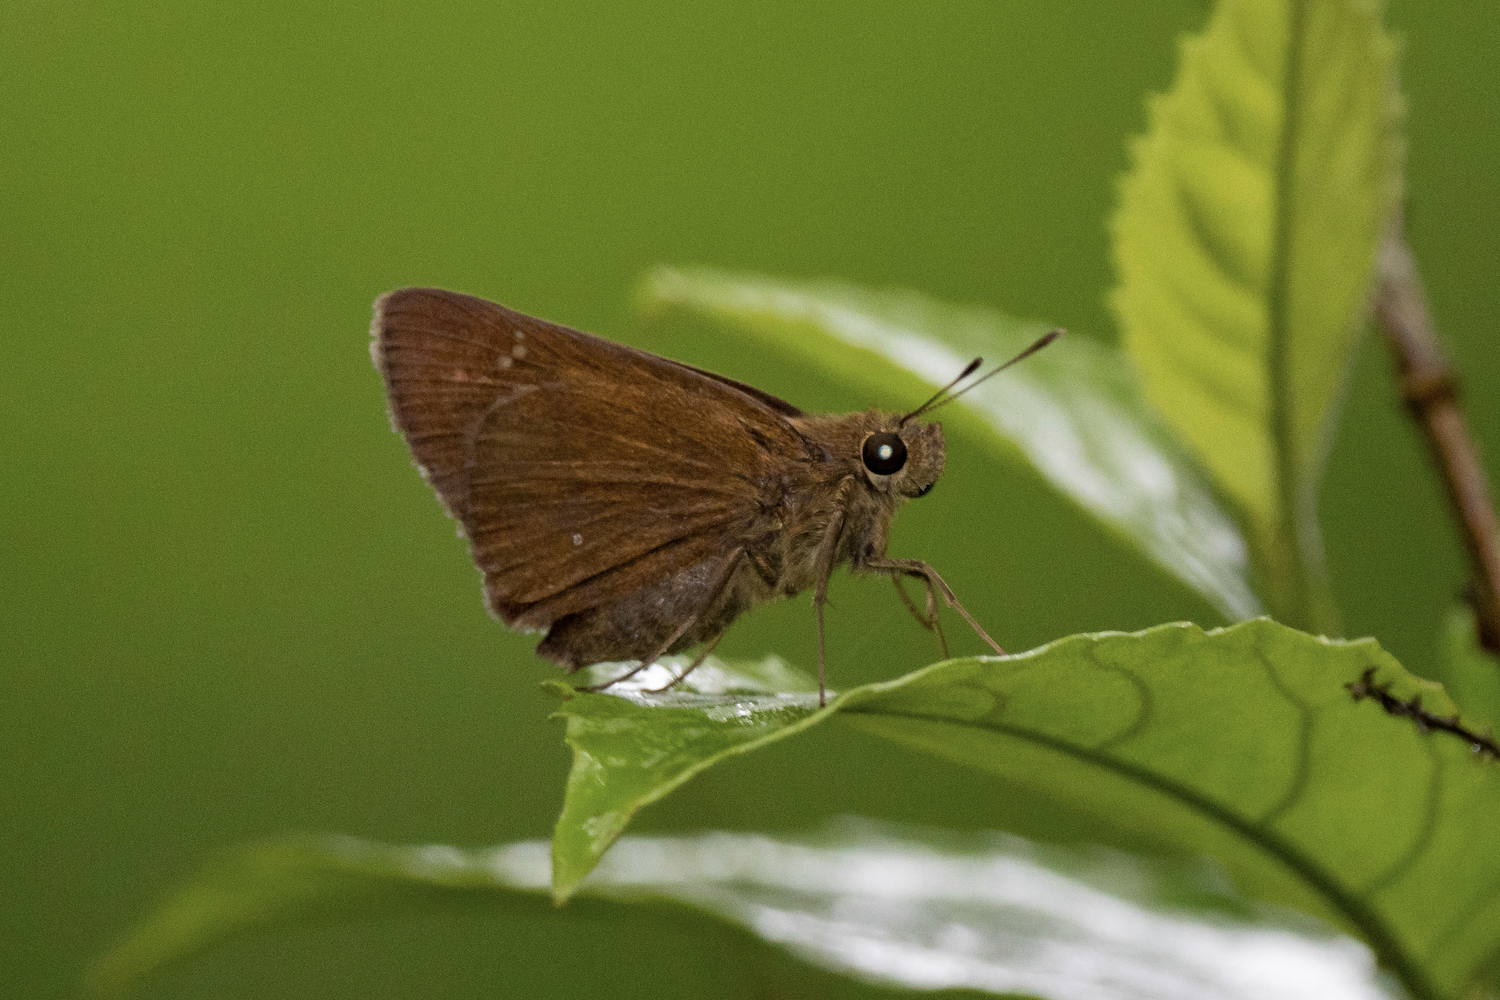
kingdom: Animalia
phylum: Arthropoda
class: Insecta
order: Lepidoptera
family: Hesperiidae
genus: Caltoris
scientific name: Caltoris bromus
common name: Colon swift
